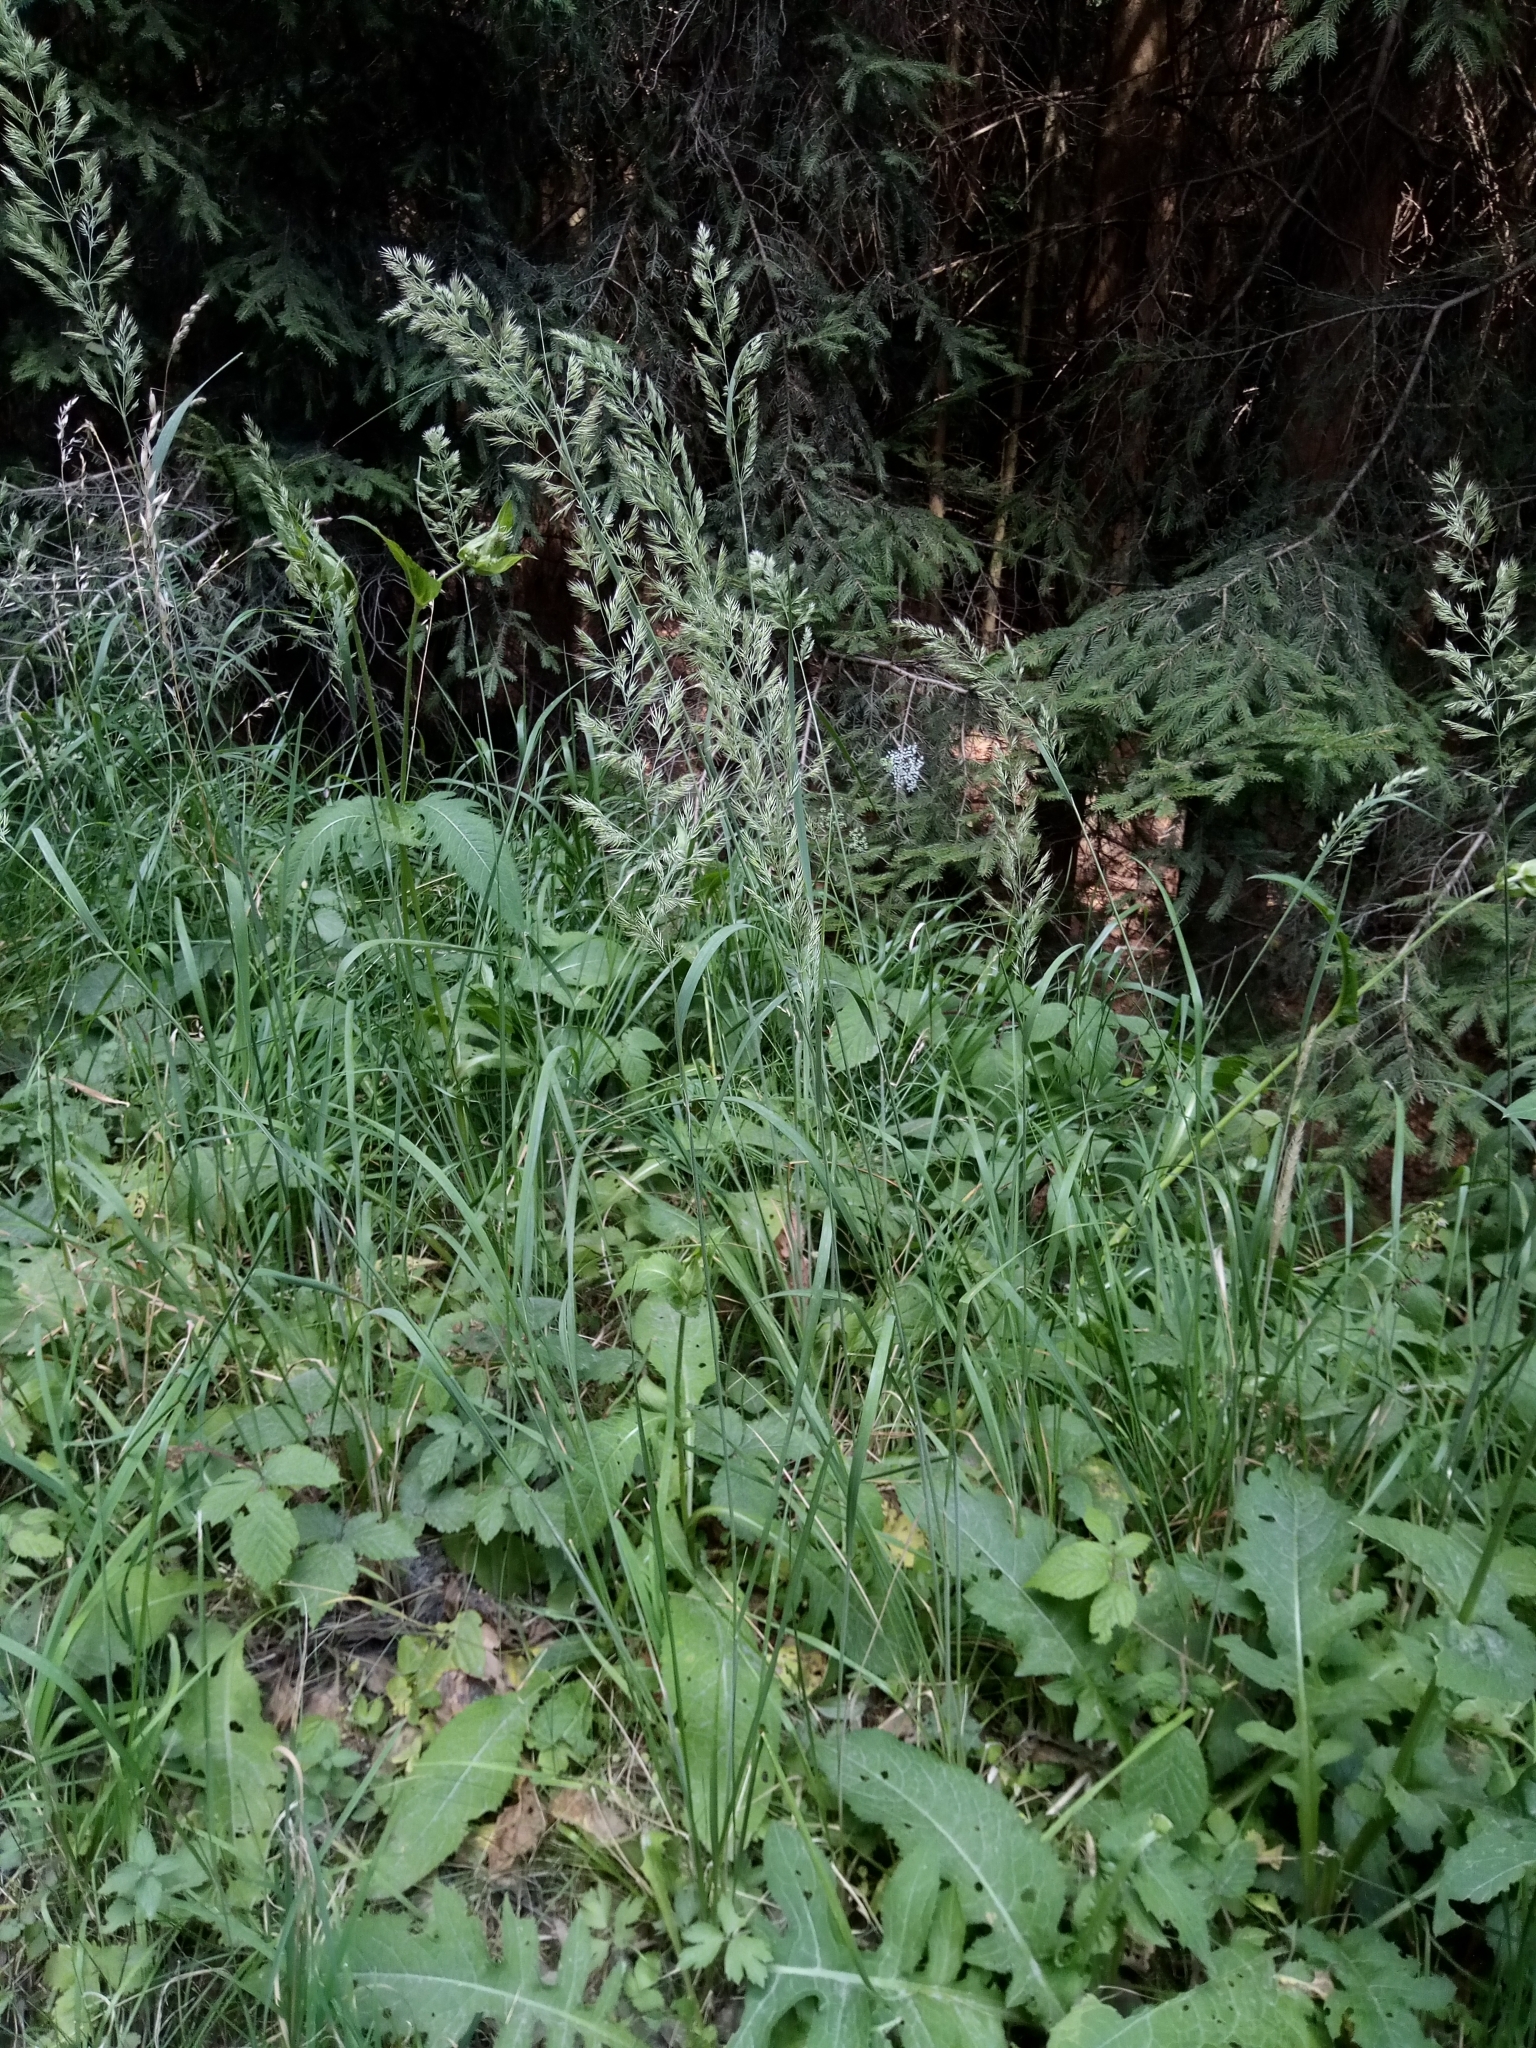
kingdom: Plantae
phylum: Tracheophyta
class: Liliopsida
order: Poales
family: Poaceae
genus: Calamagrostis
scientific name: Calamagrostis epigejos
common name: Wood small-reed
